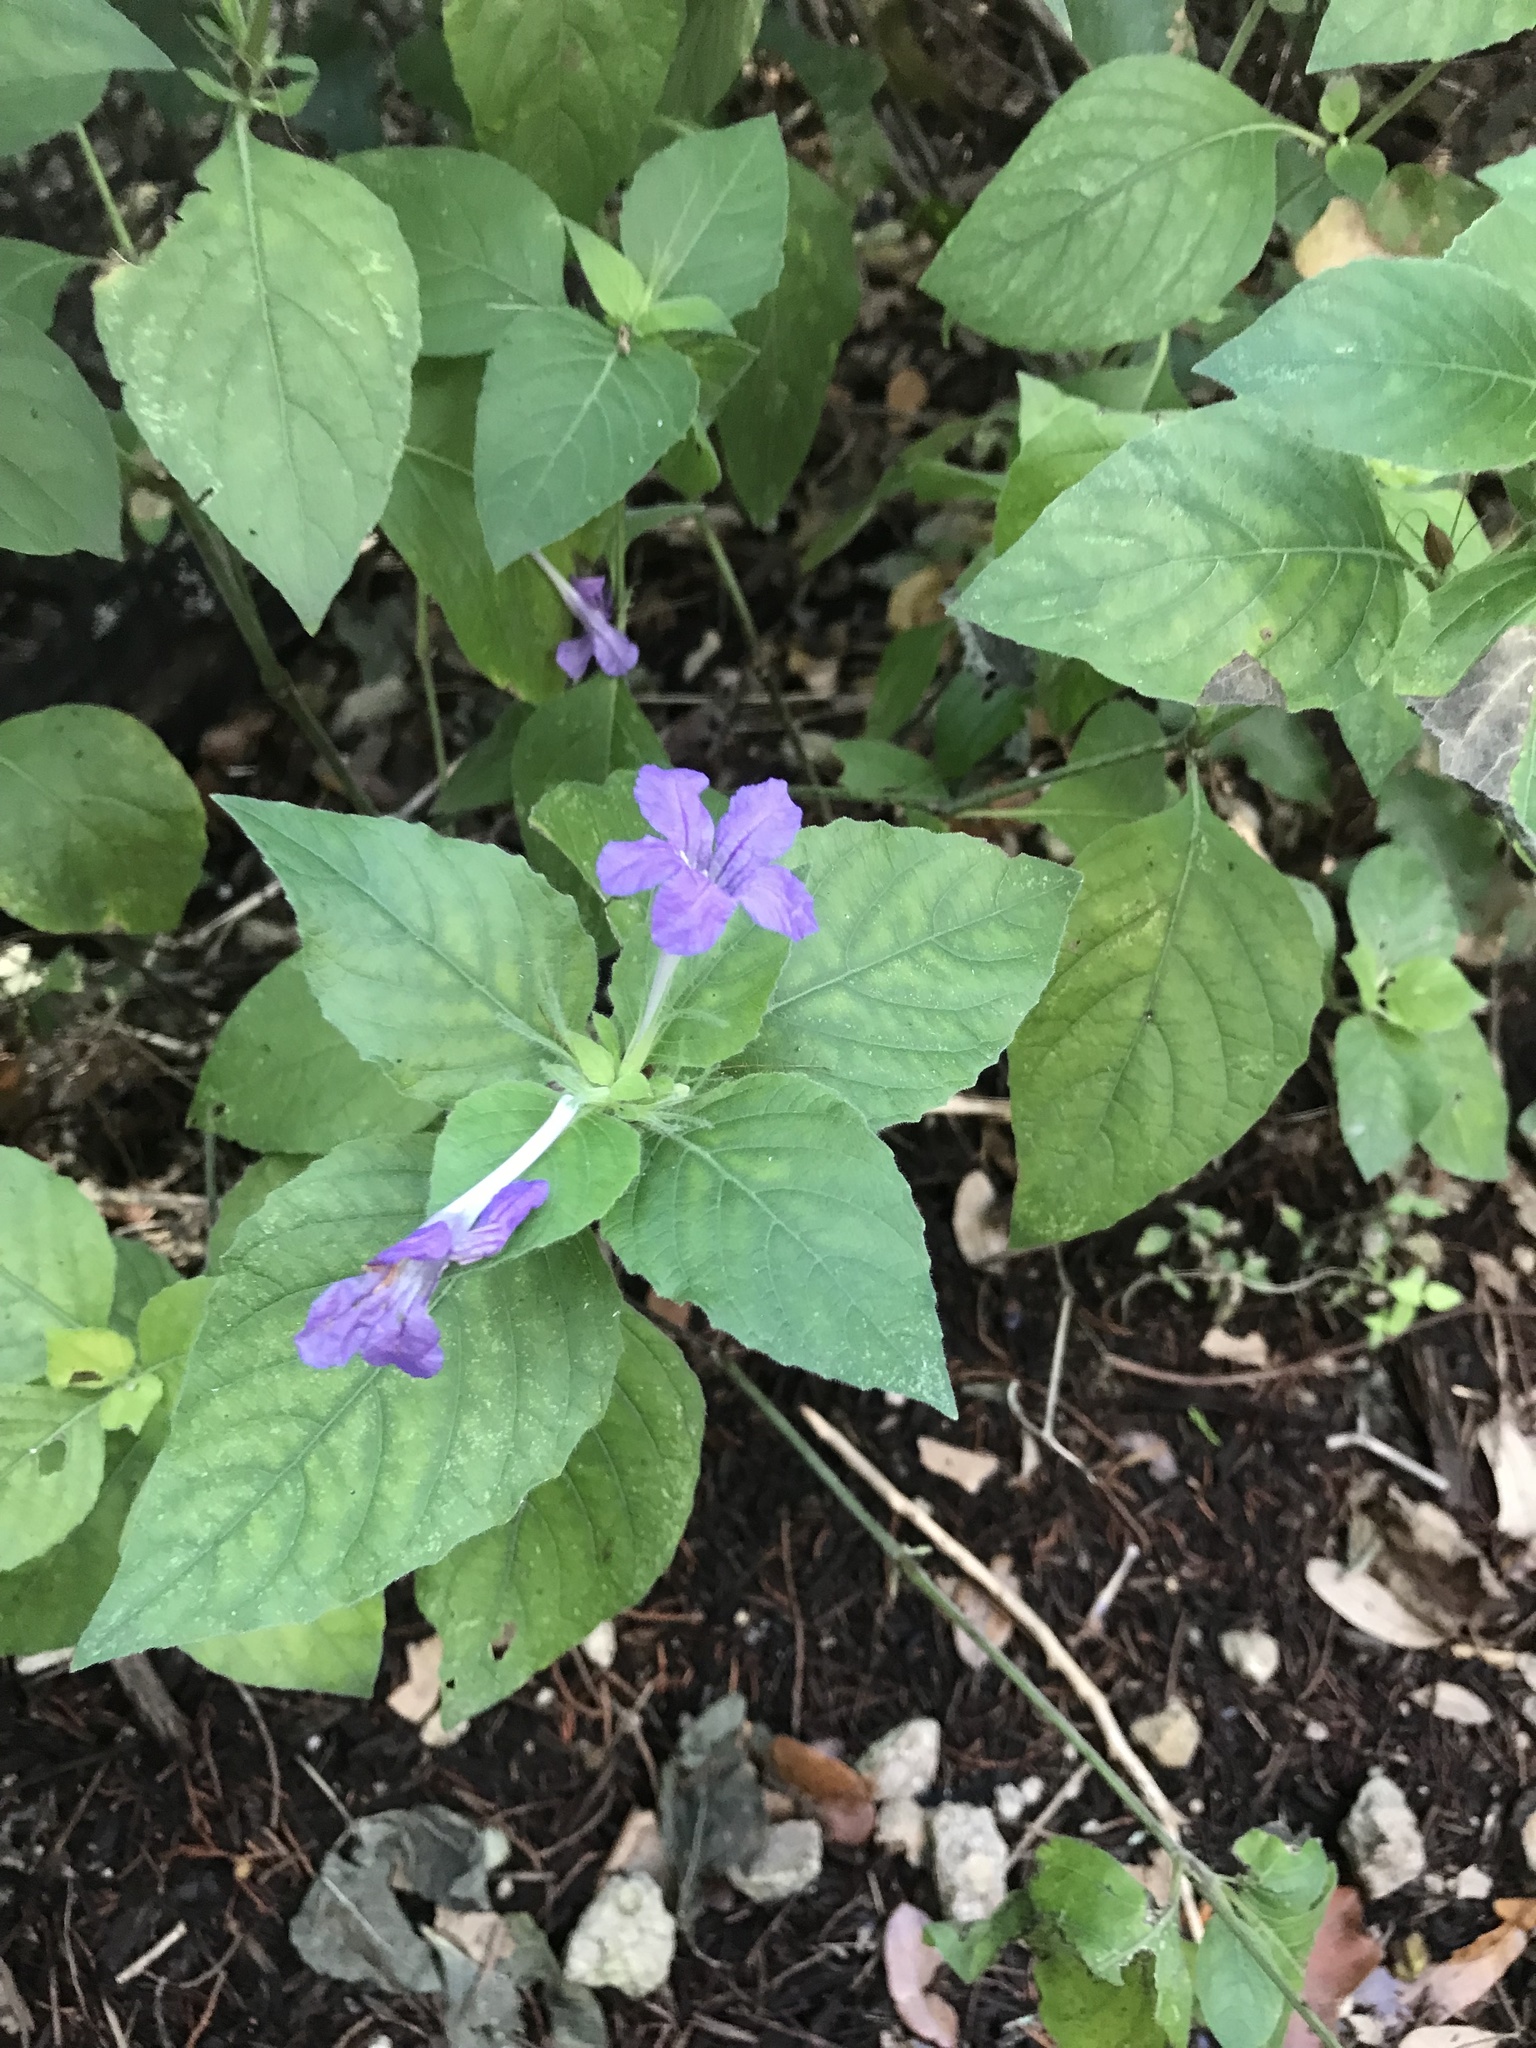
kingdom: Plantae
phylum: Tracheophyta
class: Magnoliopsida
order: Lamiales
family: Acanthaceae
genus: Ruellia
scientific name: Ruellia drummondiana
